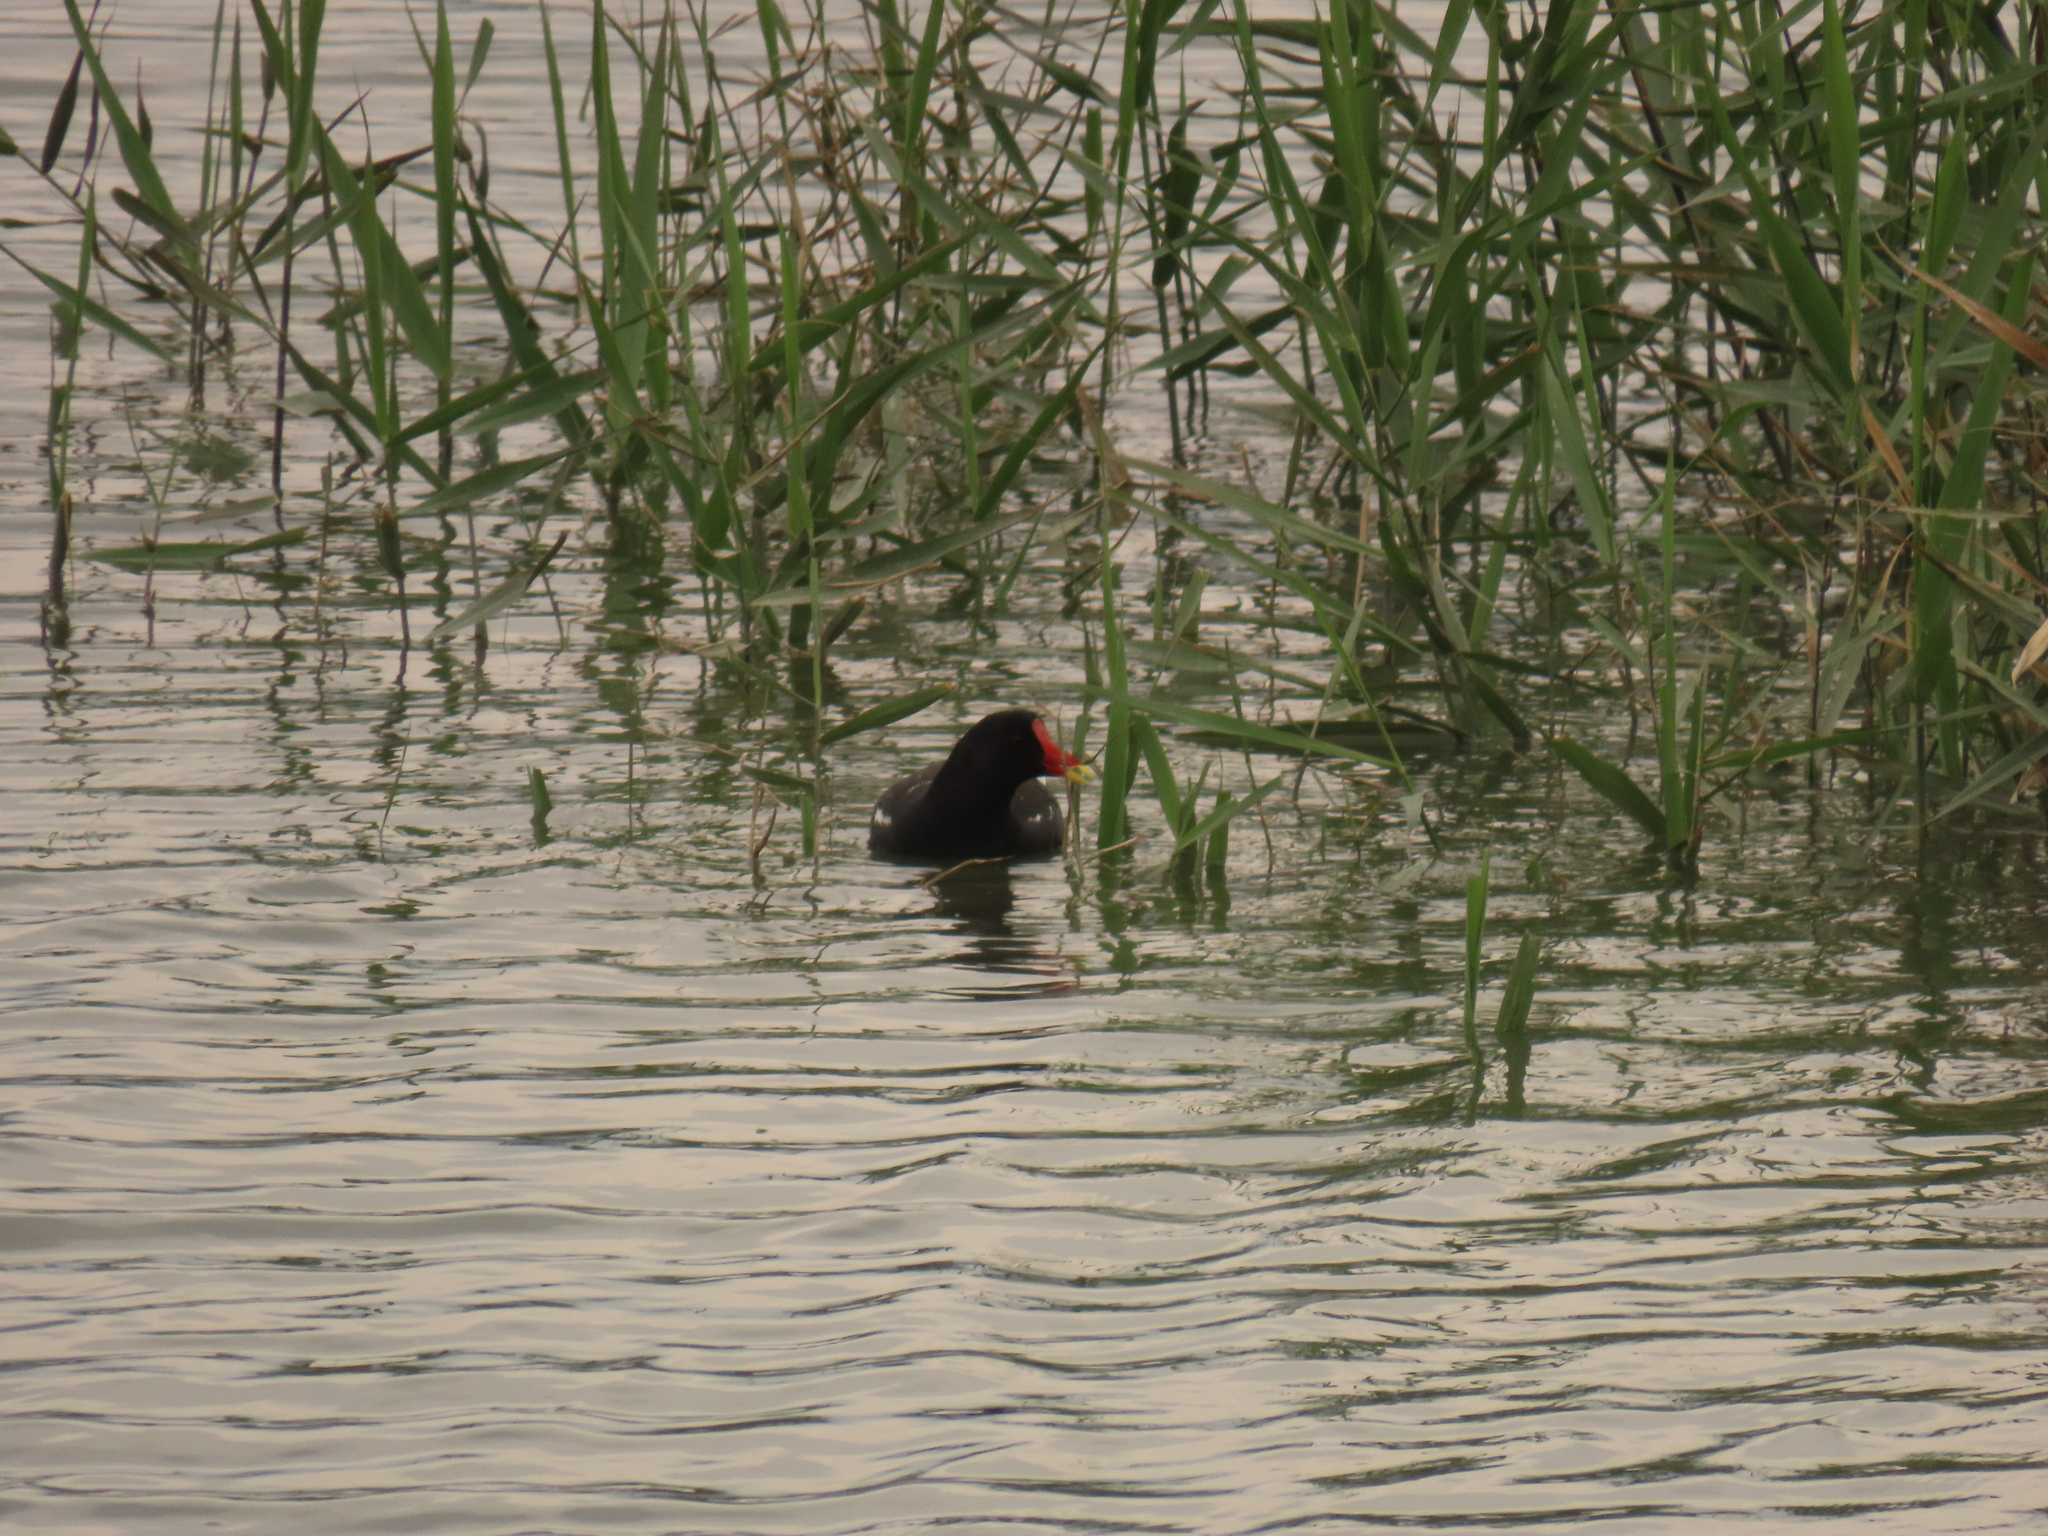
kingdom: Animalia
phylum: Chordata
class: Aves
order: Gruiformes
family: Rallidae
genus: Gallinula
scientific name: Gallinula chloropus
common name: Common moorhen
